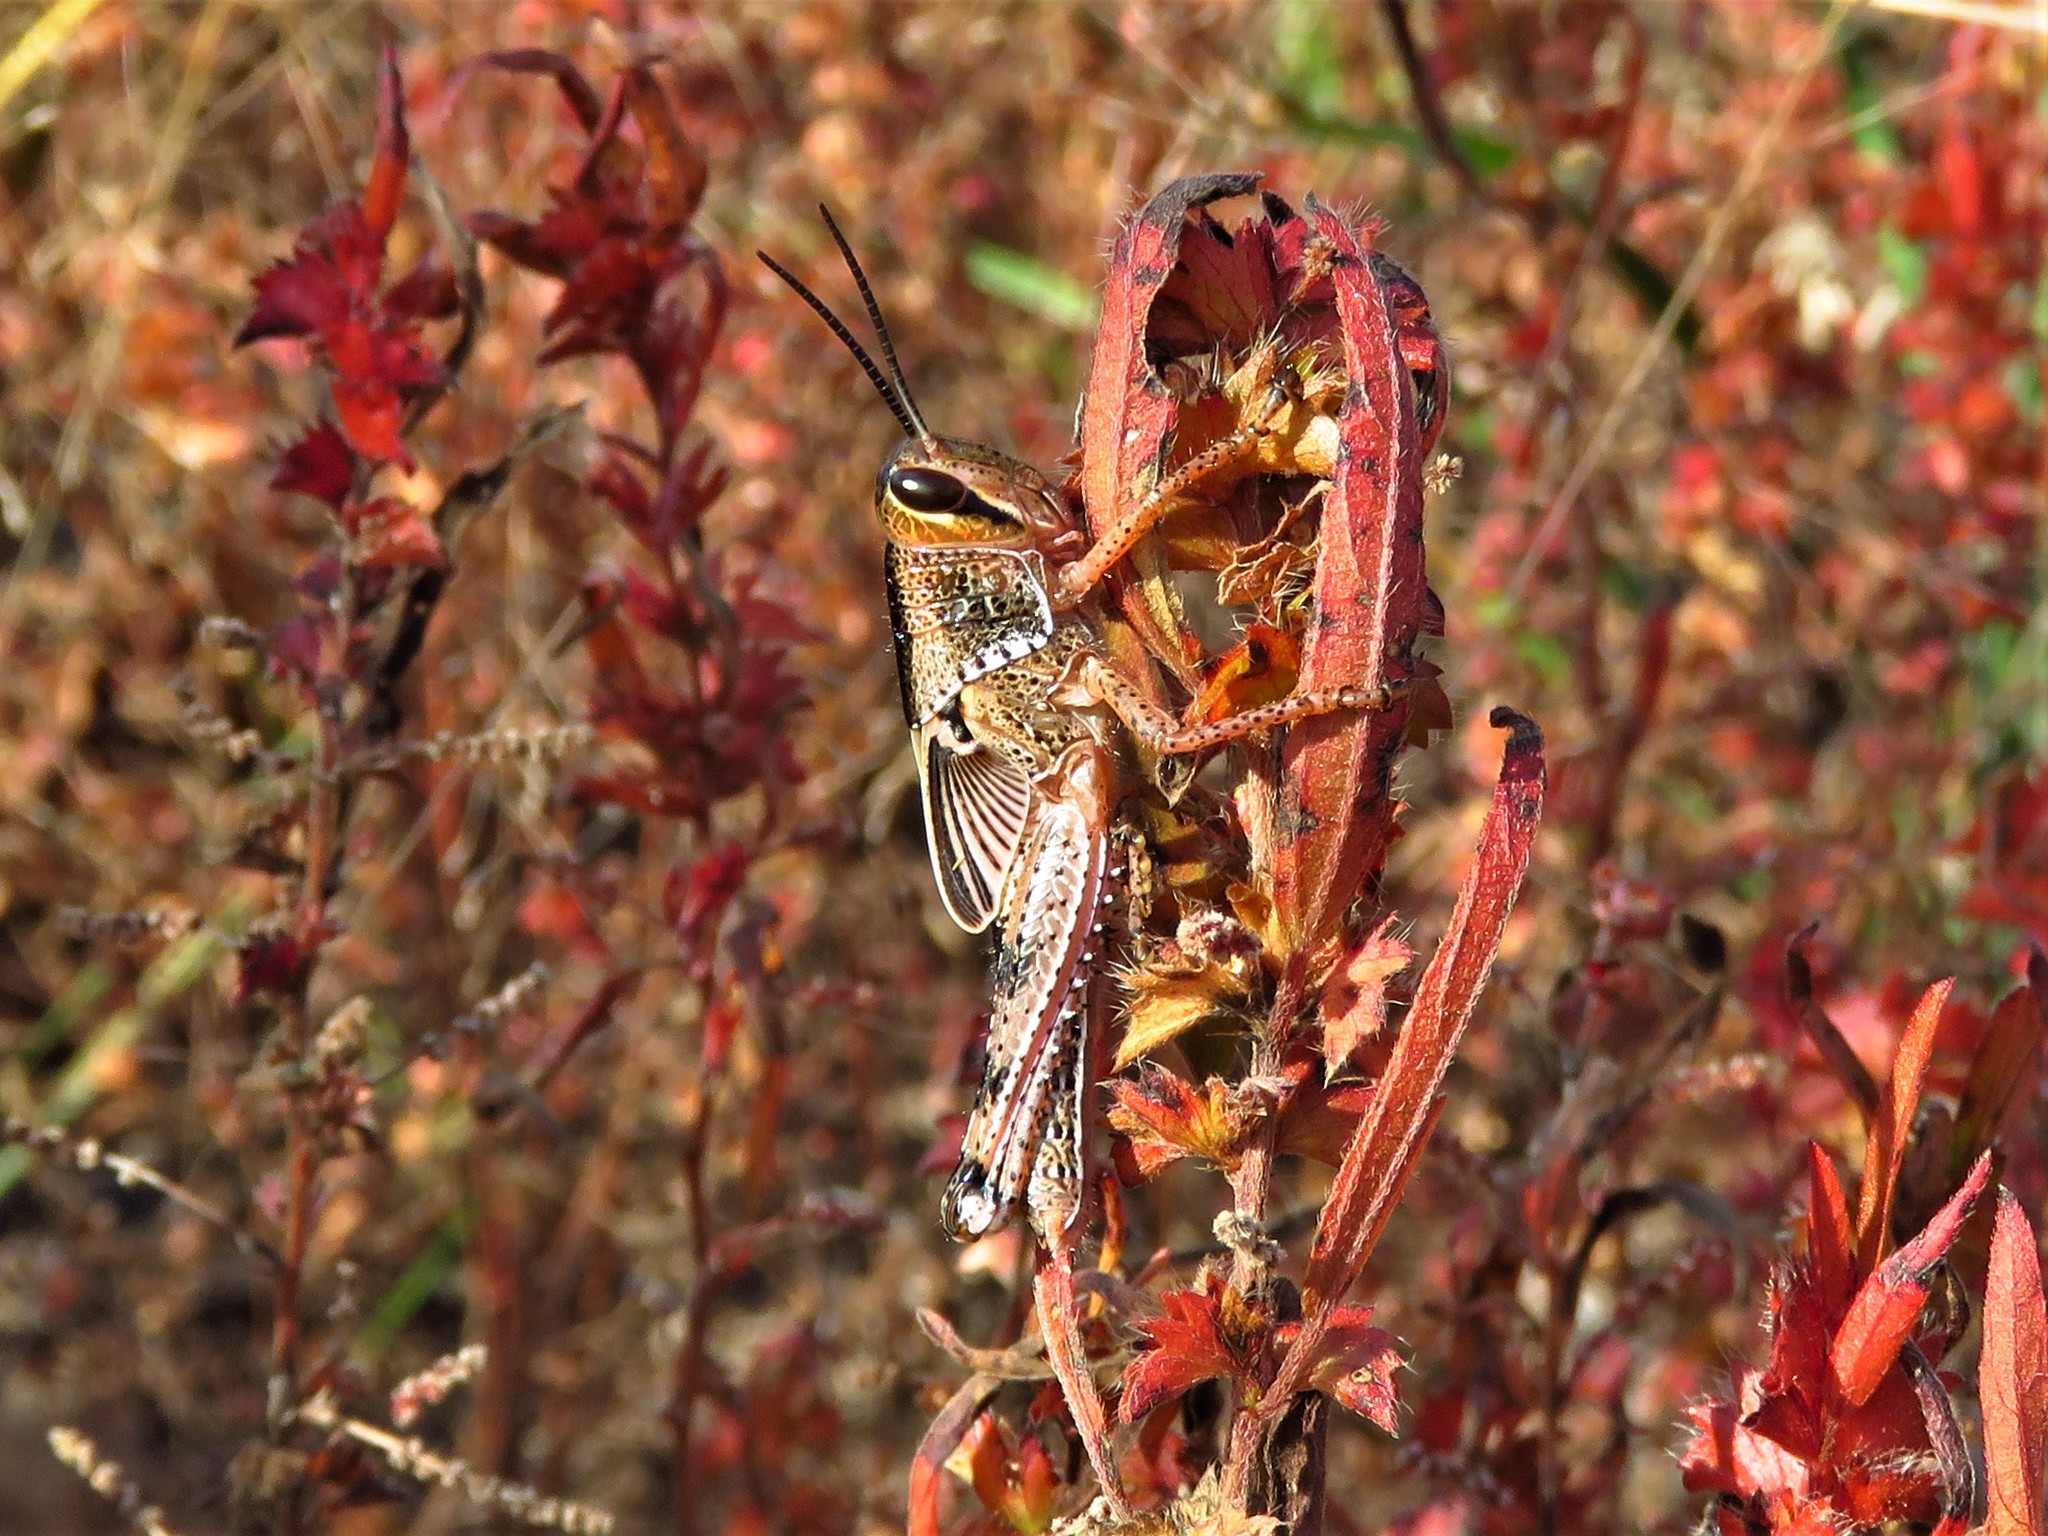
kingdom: Animalia
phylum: Arthropoda
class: Insecta
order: Orthoptera
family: Acrididae
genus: Schistocerca
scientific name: Schistocerca americana
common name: American bird locust
